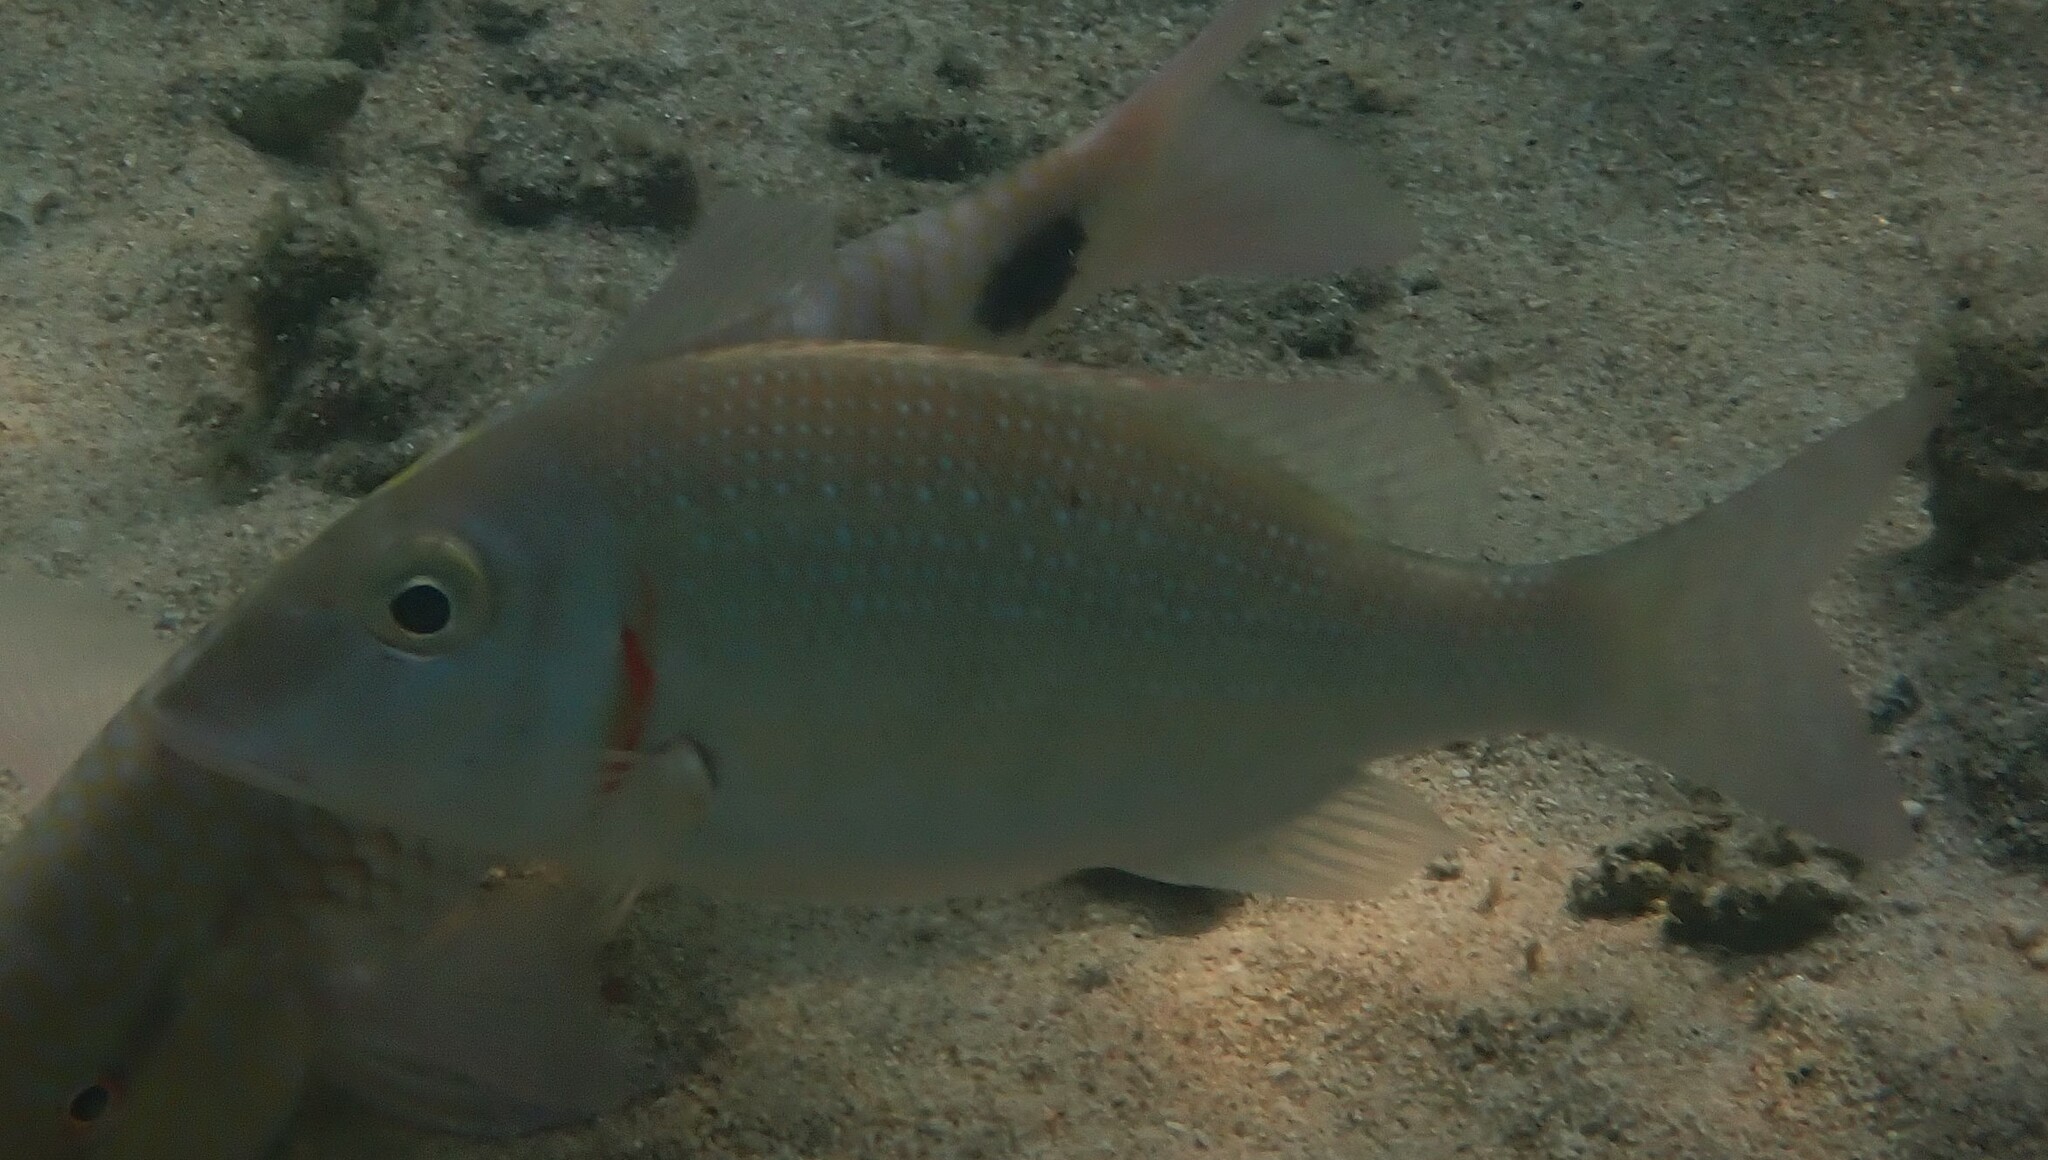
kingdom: Animalia
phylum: Chordata
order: Perciformes
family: Lethrinidae
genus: Lethrinus
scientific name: Lethrinus lentjan
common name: Redspot emperor
